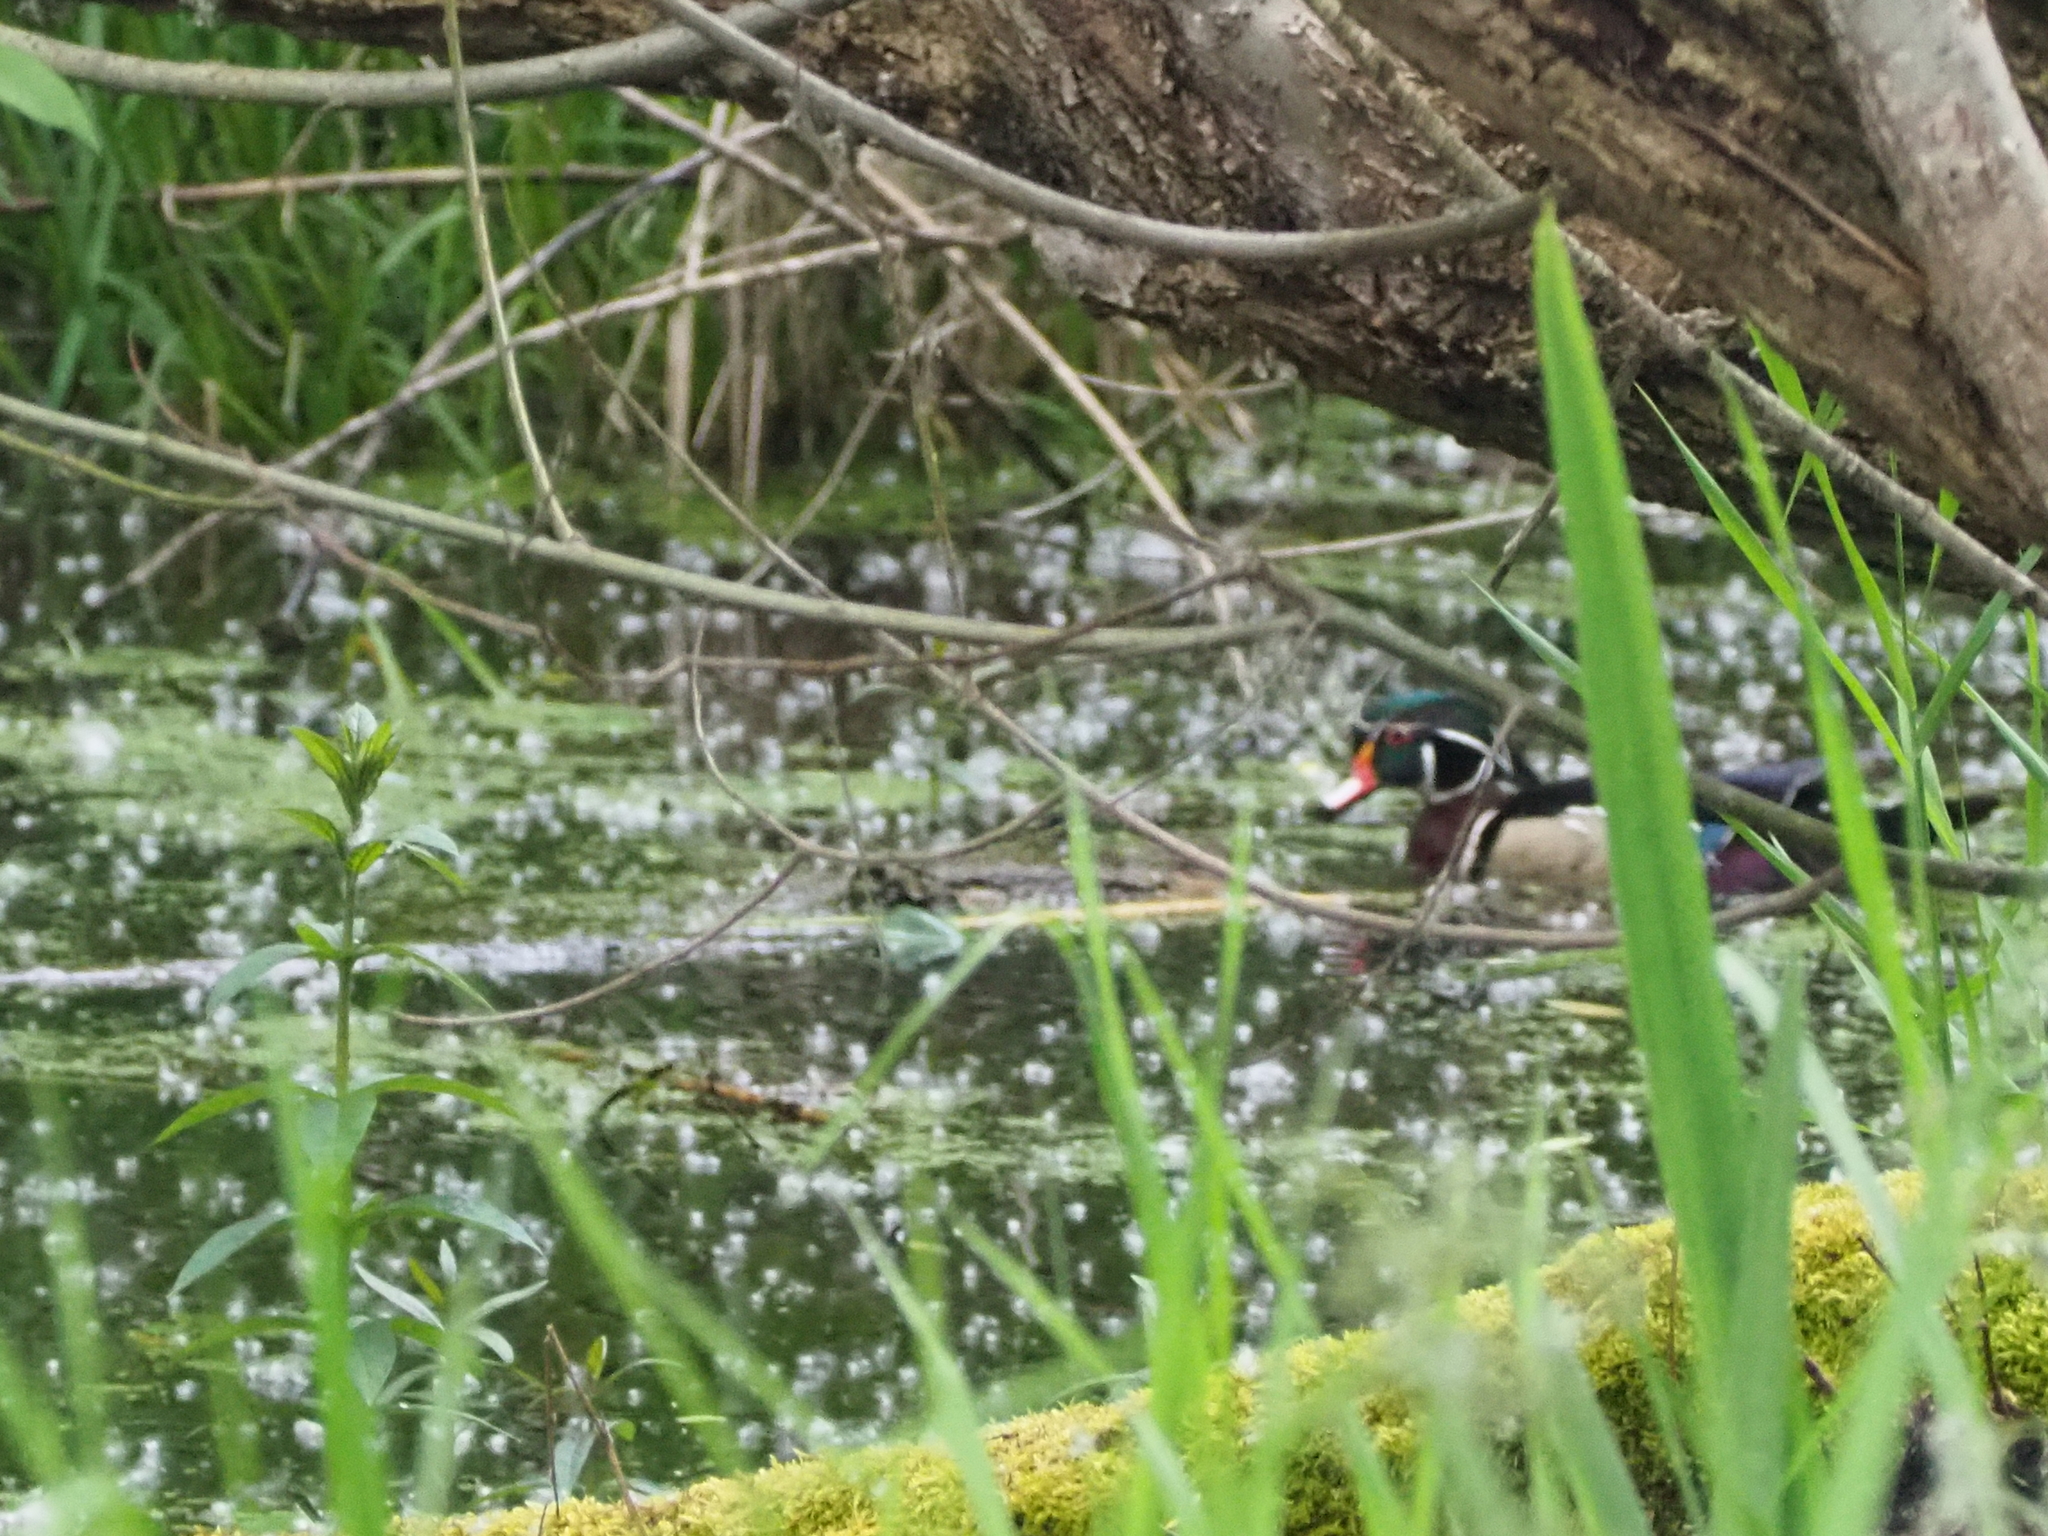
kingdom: Animalia
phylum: Chordata
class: Aves
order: Anseriformes
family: Anatidae
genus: Aix
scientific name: Aix sponsa
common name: Wood duck
